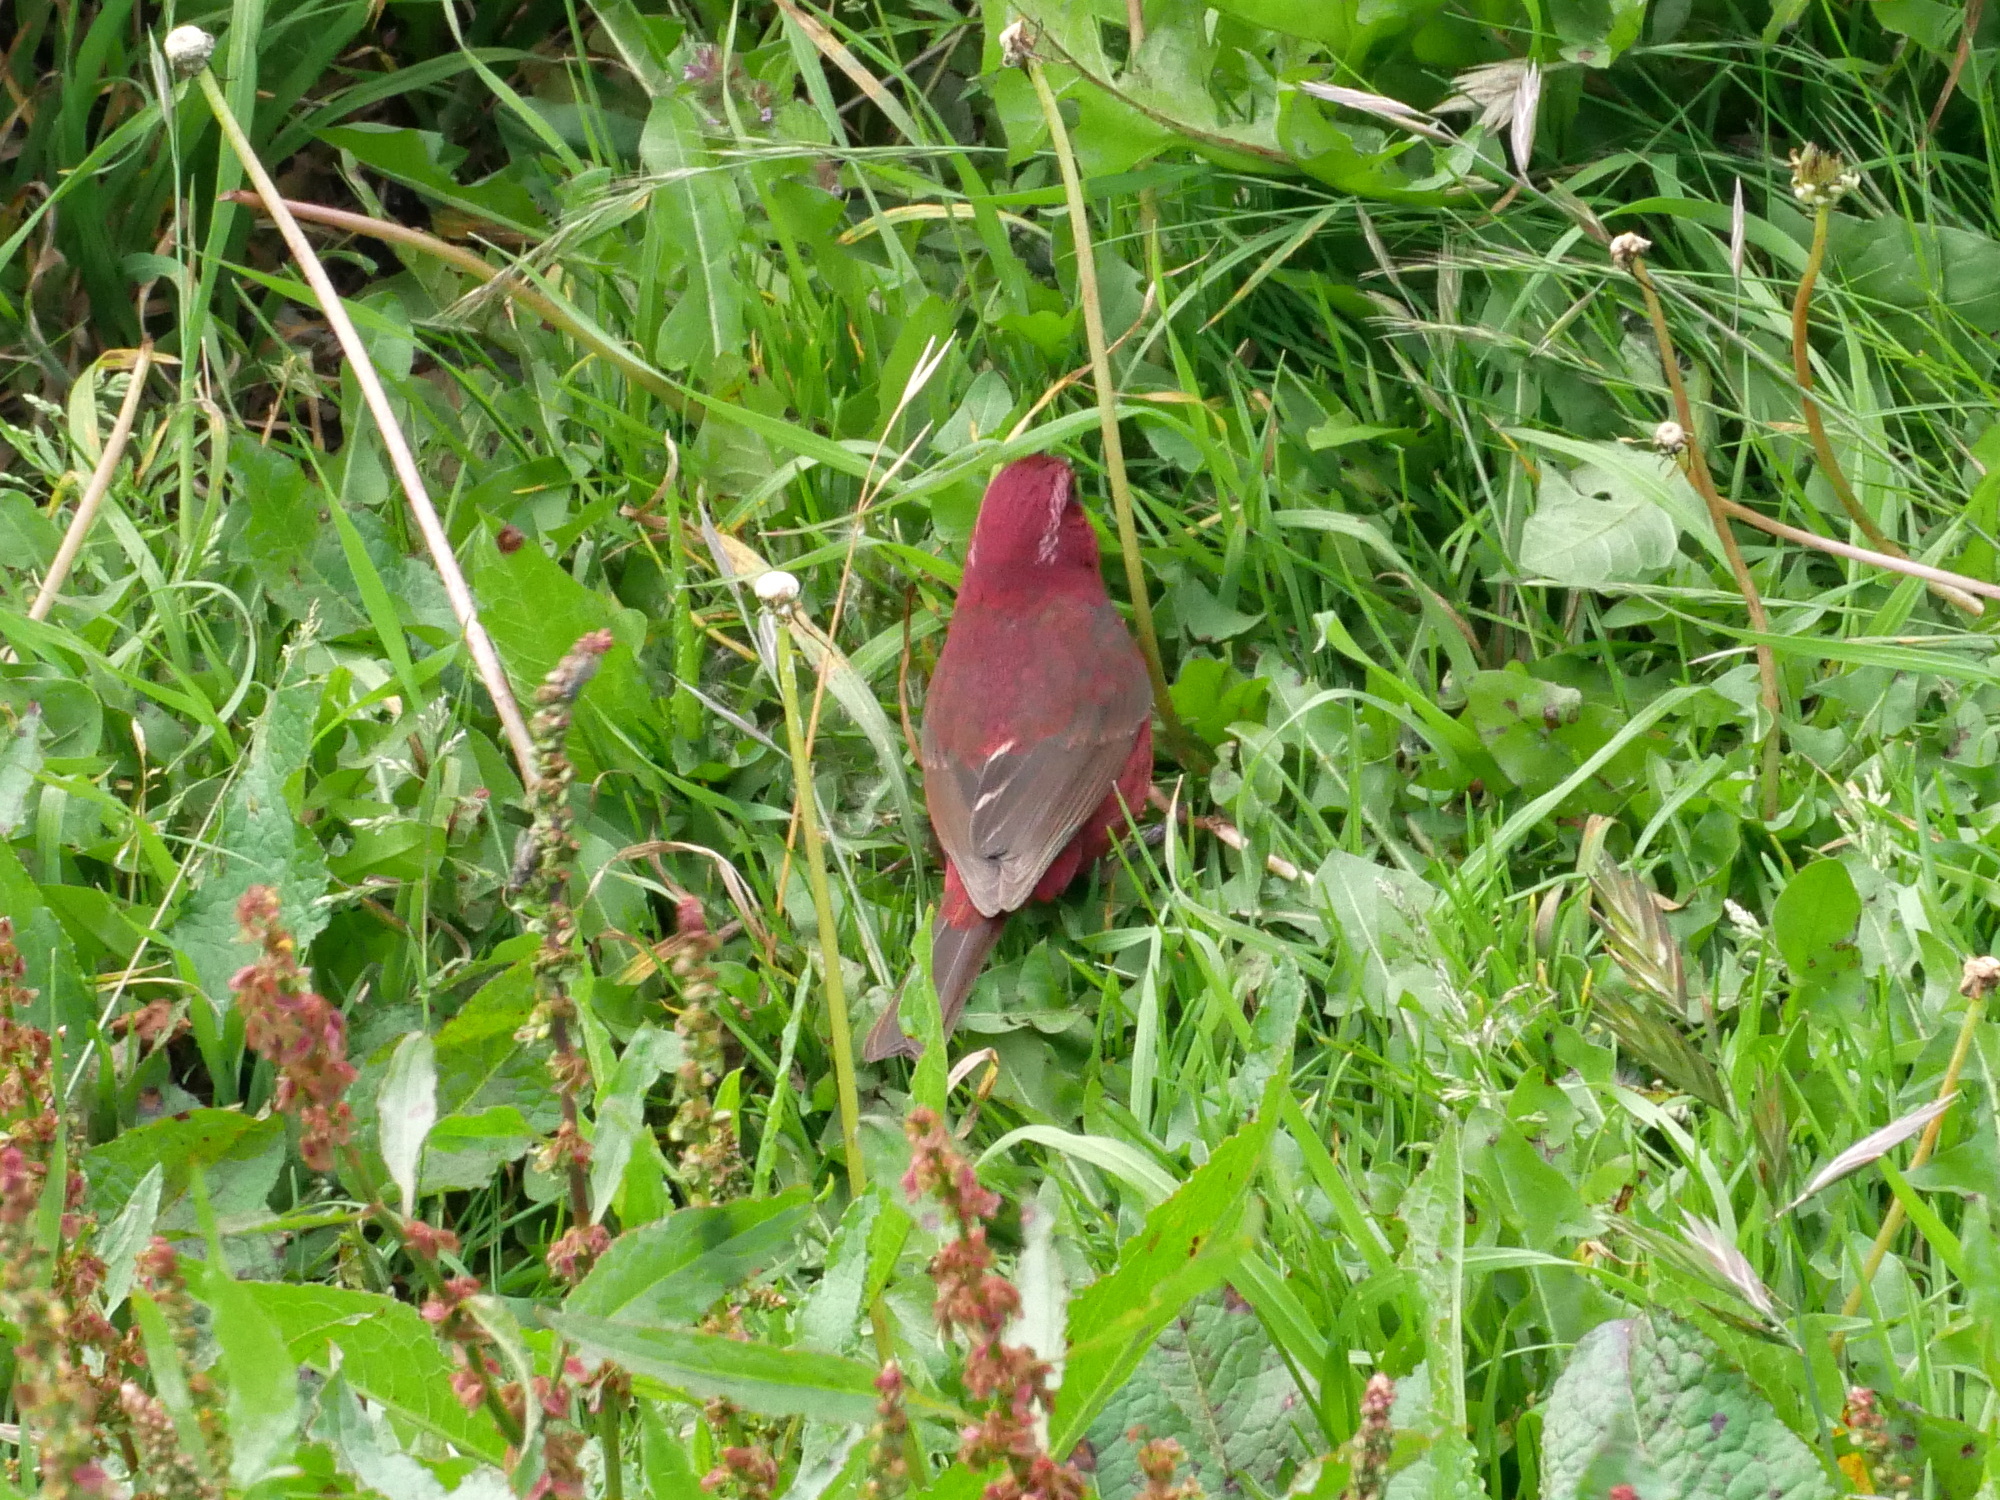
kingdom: Animalia
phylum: Chordata
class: Aves
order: Passeriformes
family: Fringillidae
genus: Carpodacus
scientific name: Carpodacus formosanus
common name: Taiwan rosefinch
